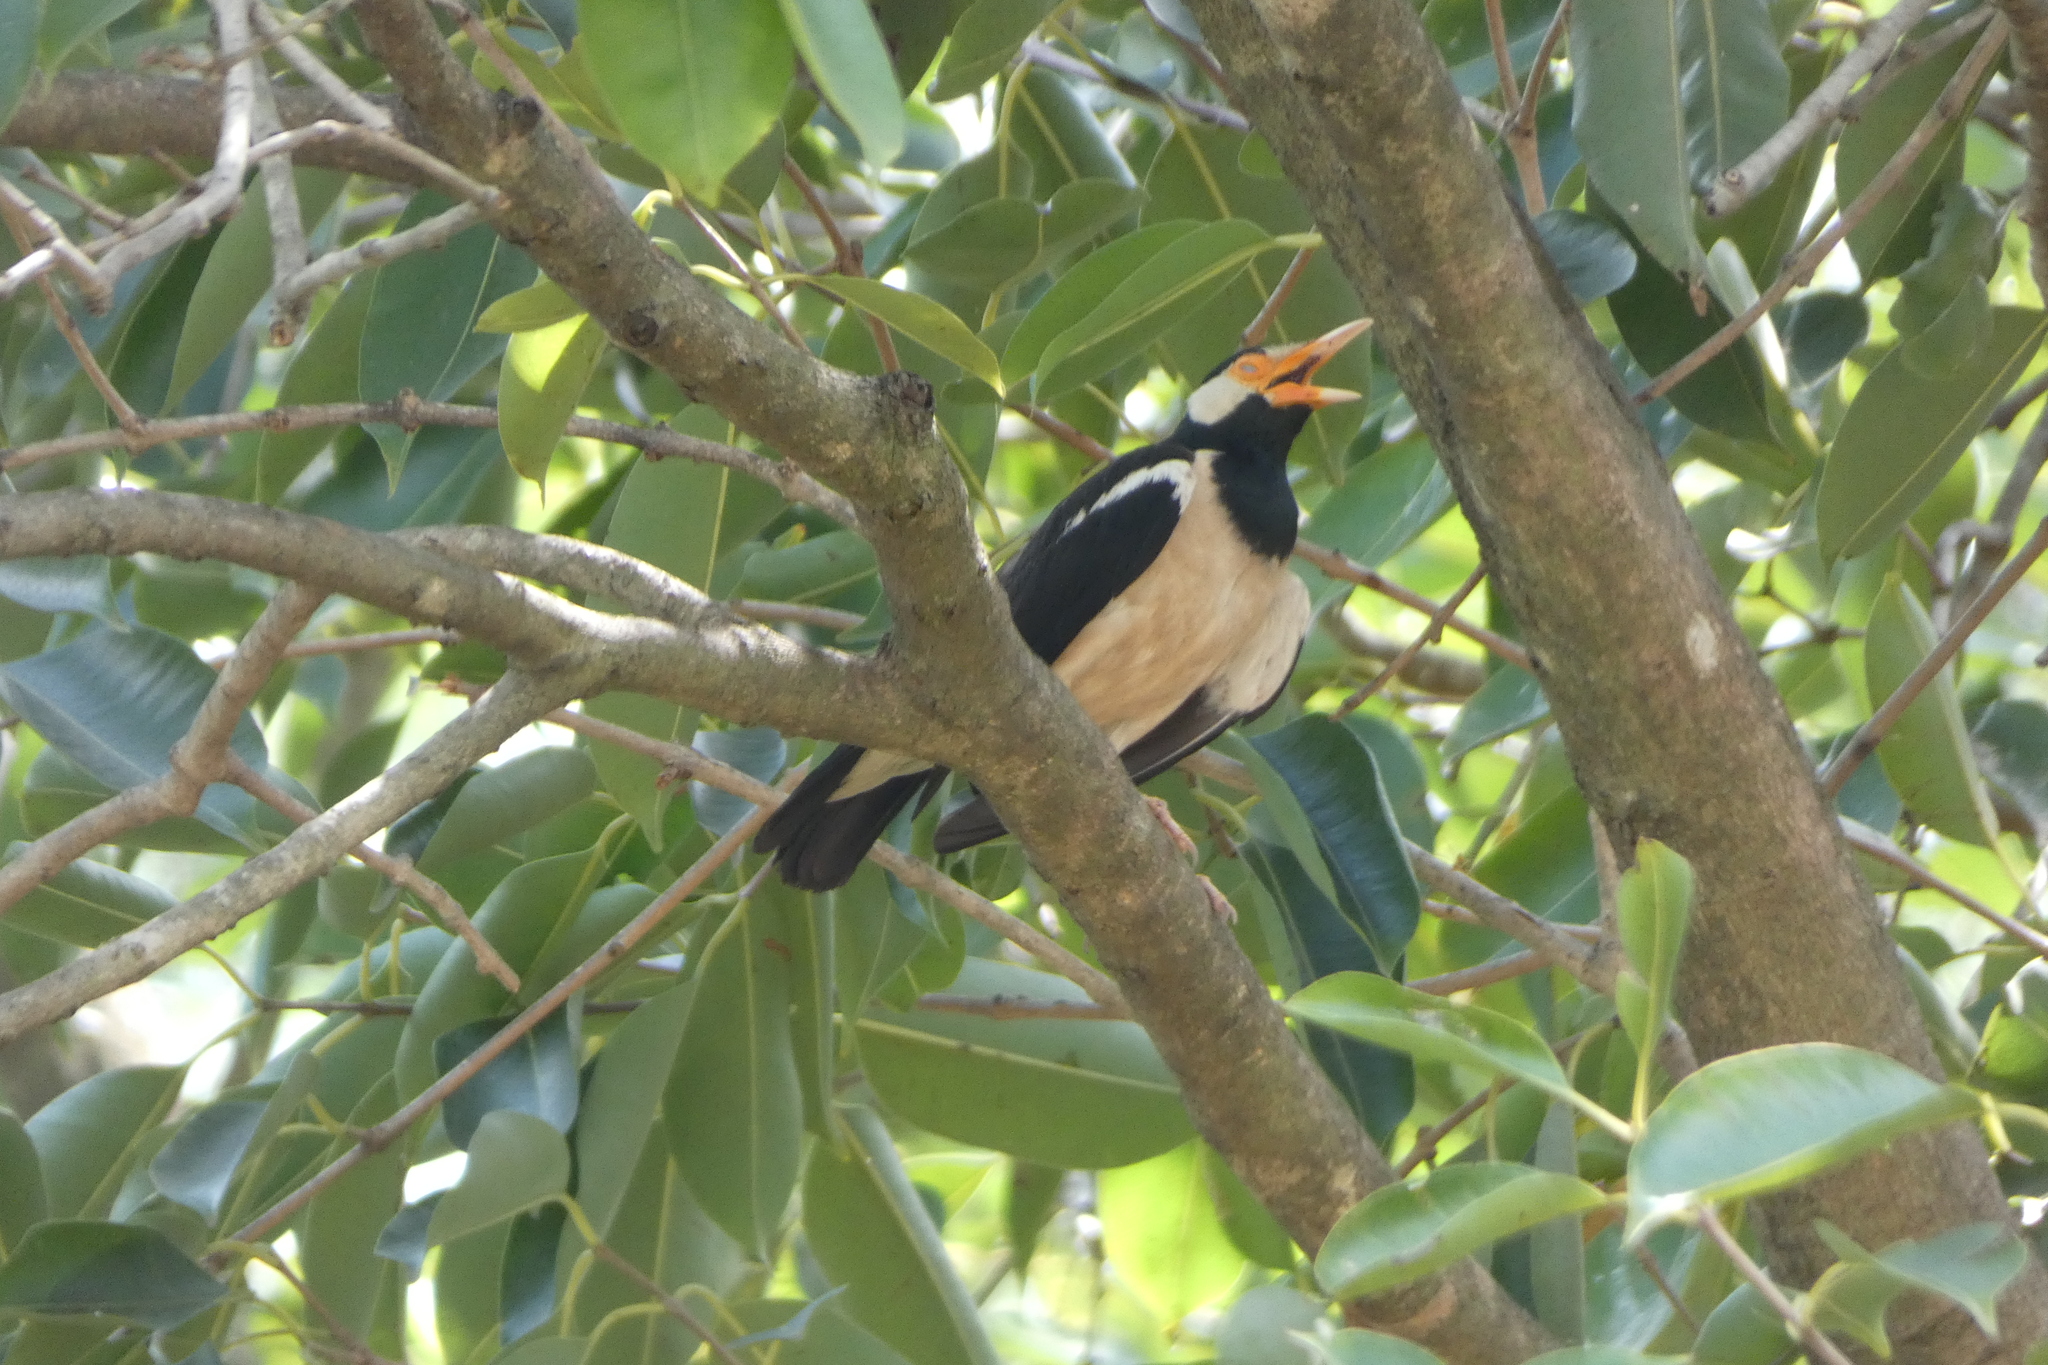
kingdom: Animalia
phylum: Chordata
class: Aves
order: Passeriformes
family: Sturnidae
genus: Gracupica
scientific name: Gracupica contra
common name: Pied myna
